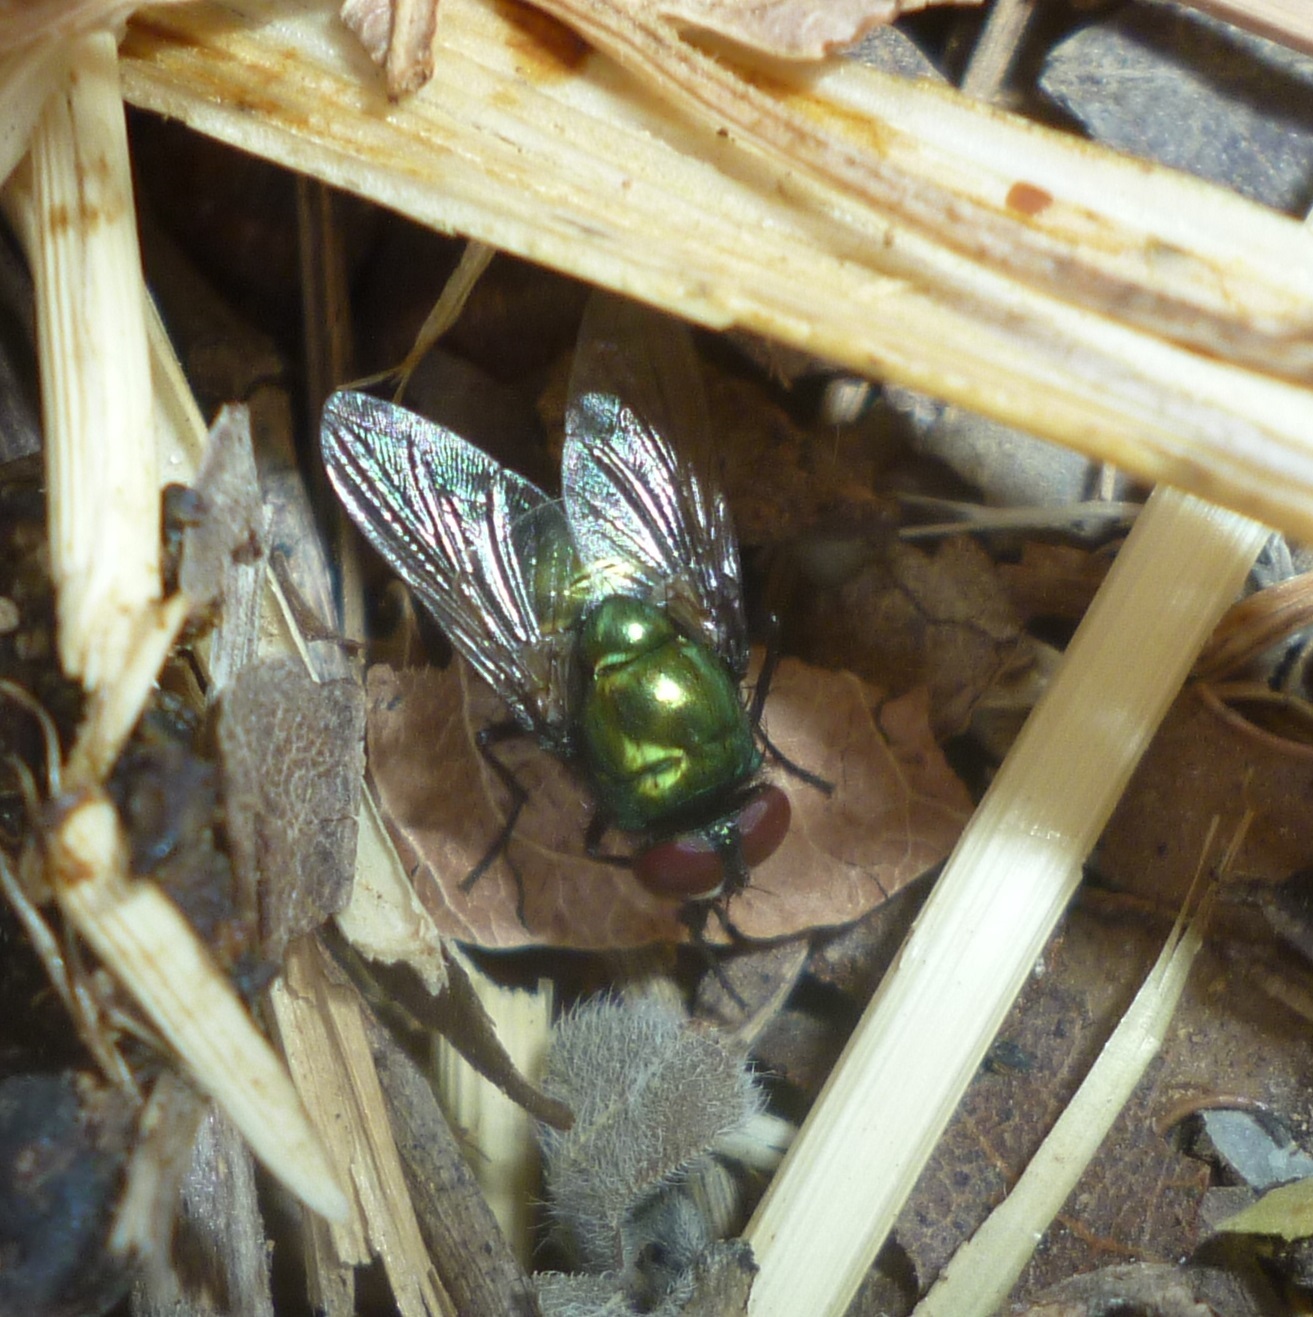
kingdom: Animalia
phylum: Arthropoda
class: Insecta
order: Diptera
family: Muscidae
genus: Neomyia
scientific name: Neomyia cornicina
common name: House fly
